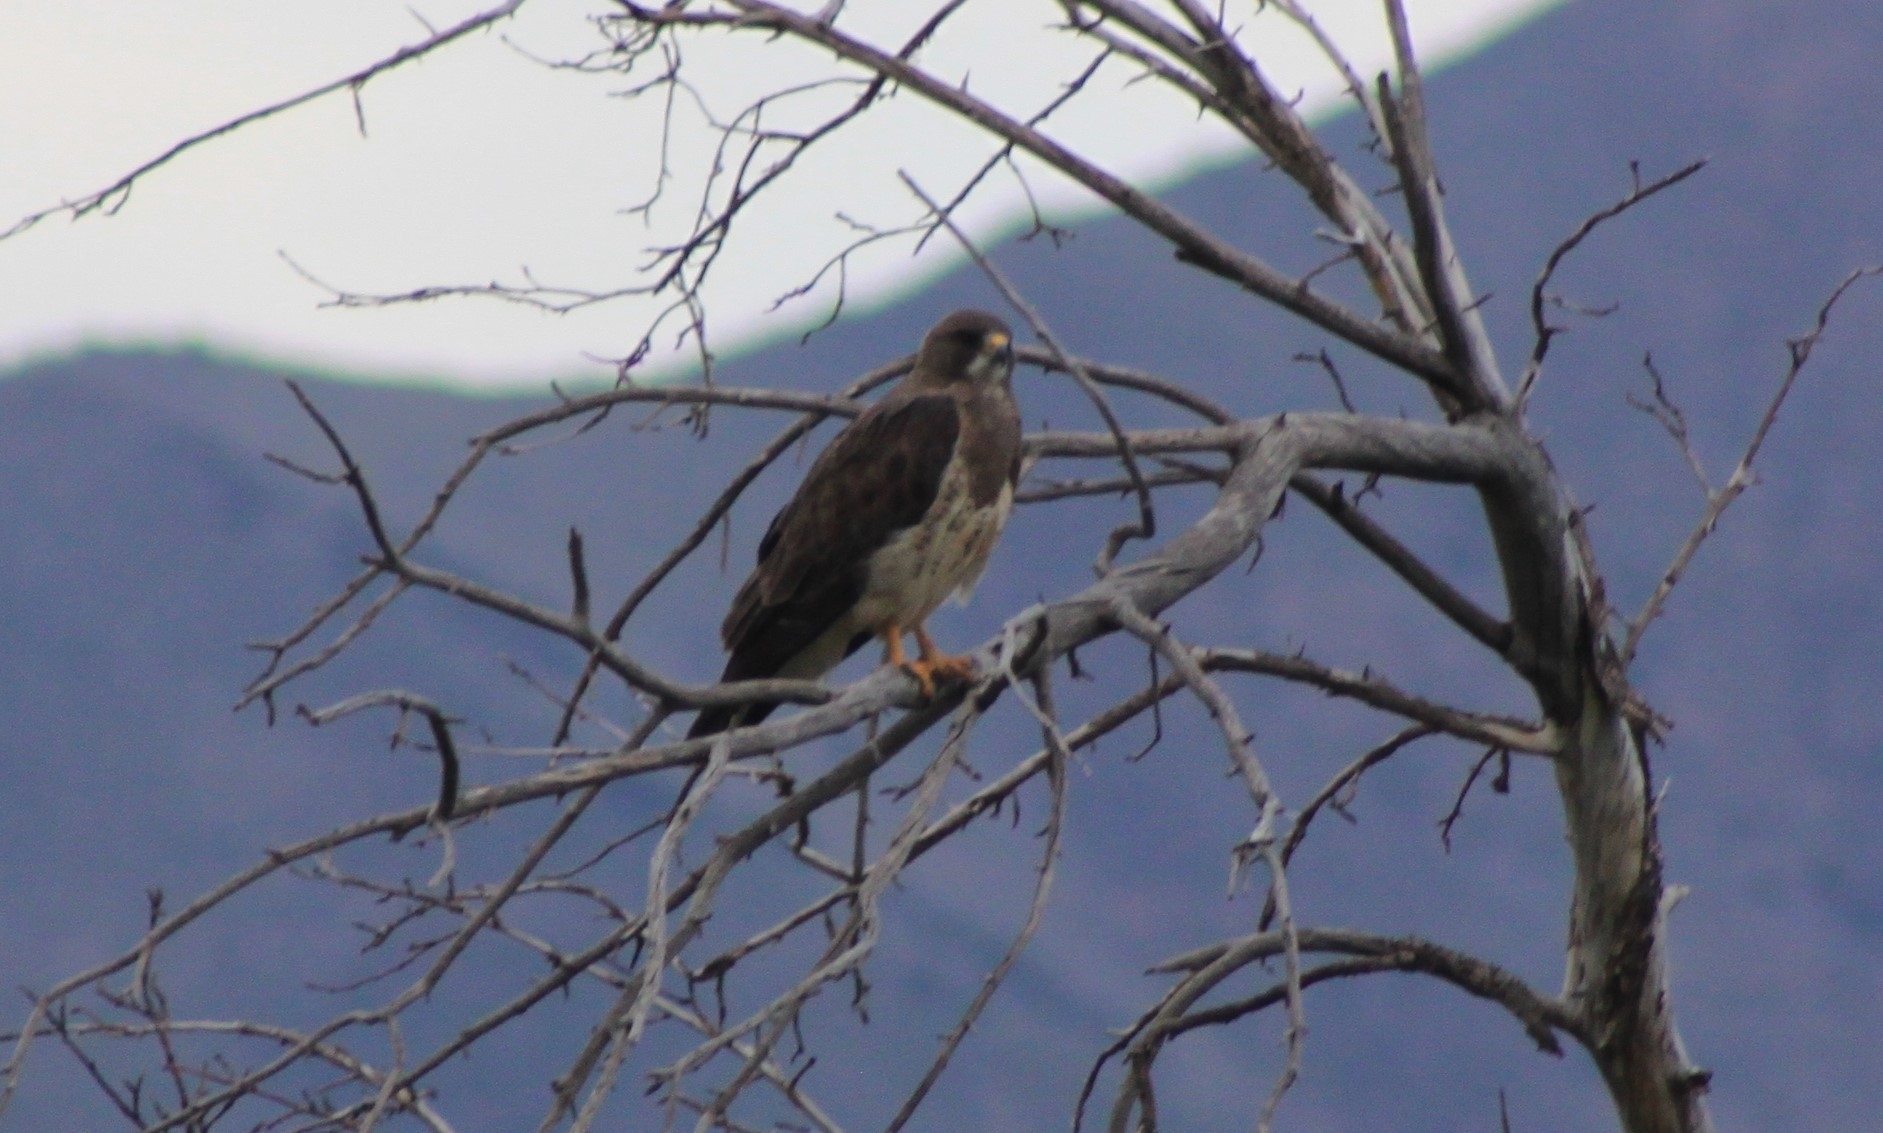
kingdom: Animalia
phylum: Chordata
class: Aves
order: Accipitriformes
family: Accipitridae
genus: Buteo
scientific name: Buteo swainsoni
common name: Swainson's hawk
